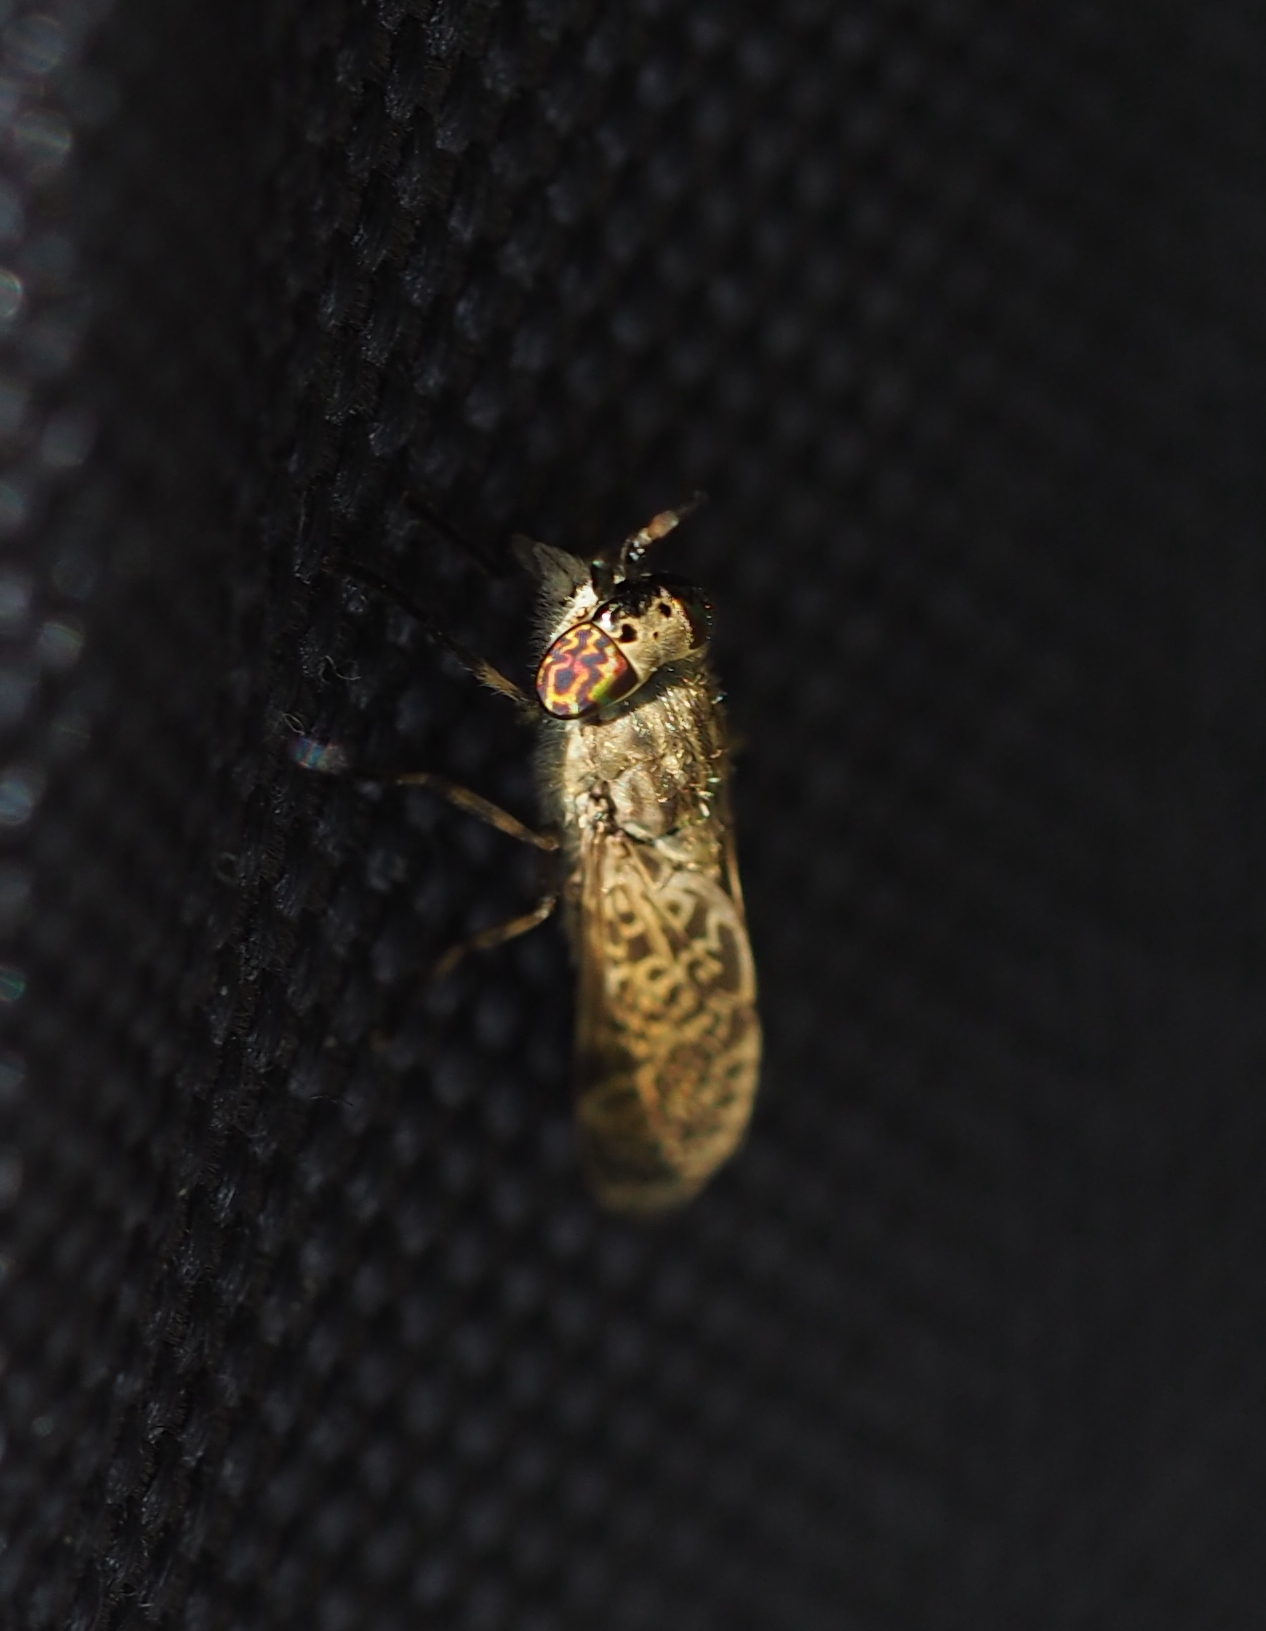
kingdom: Animalia
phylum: Arthropoda
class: Insecta
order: Diptera
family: Tabanidae
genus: Haematopota
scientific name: Haematopota pluvialis
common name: Common horse fly
